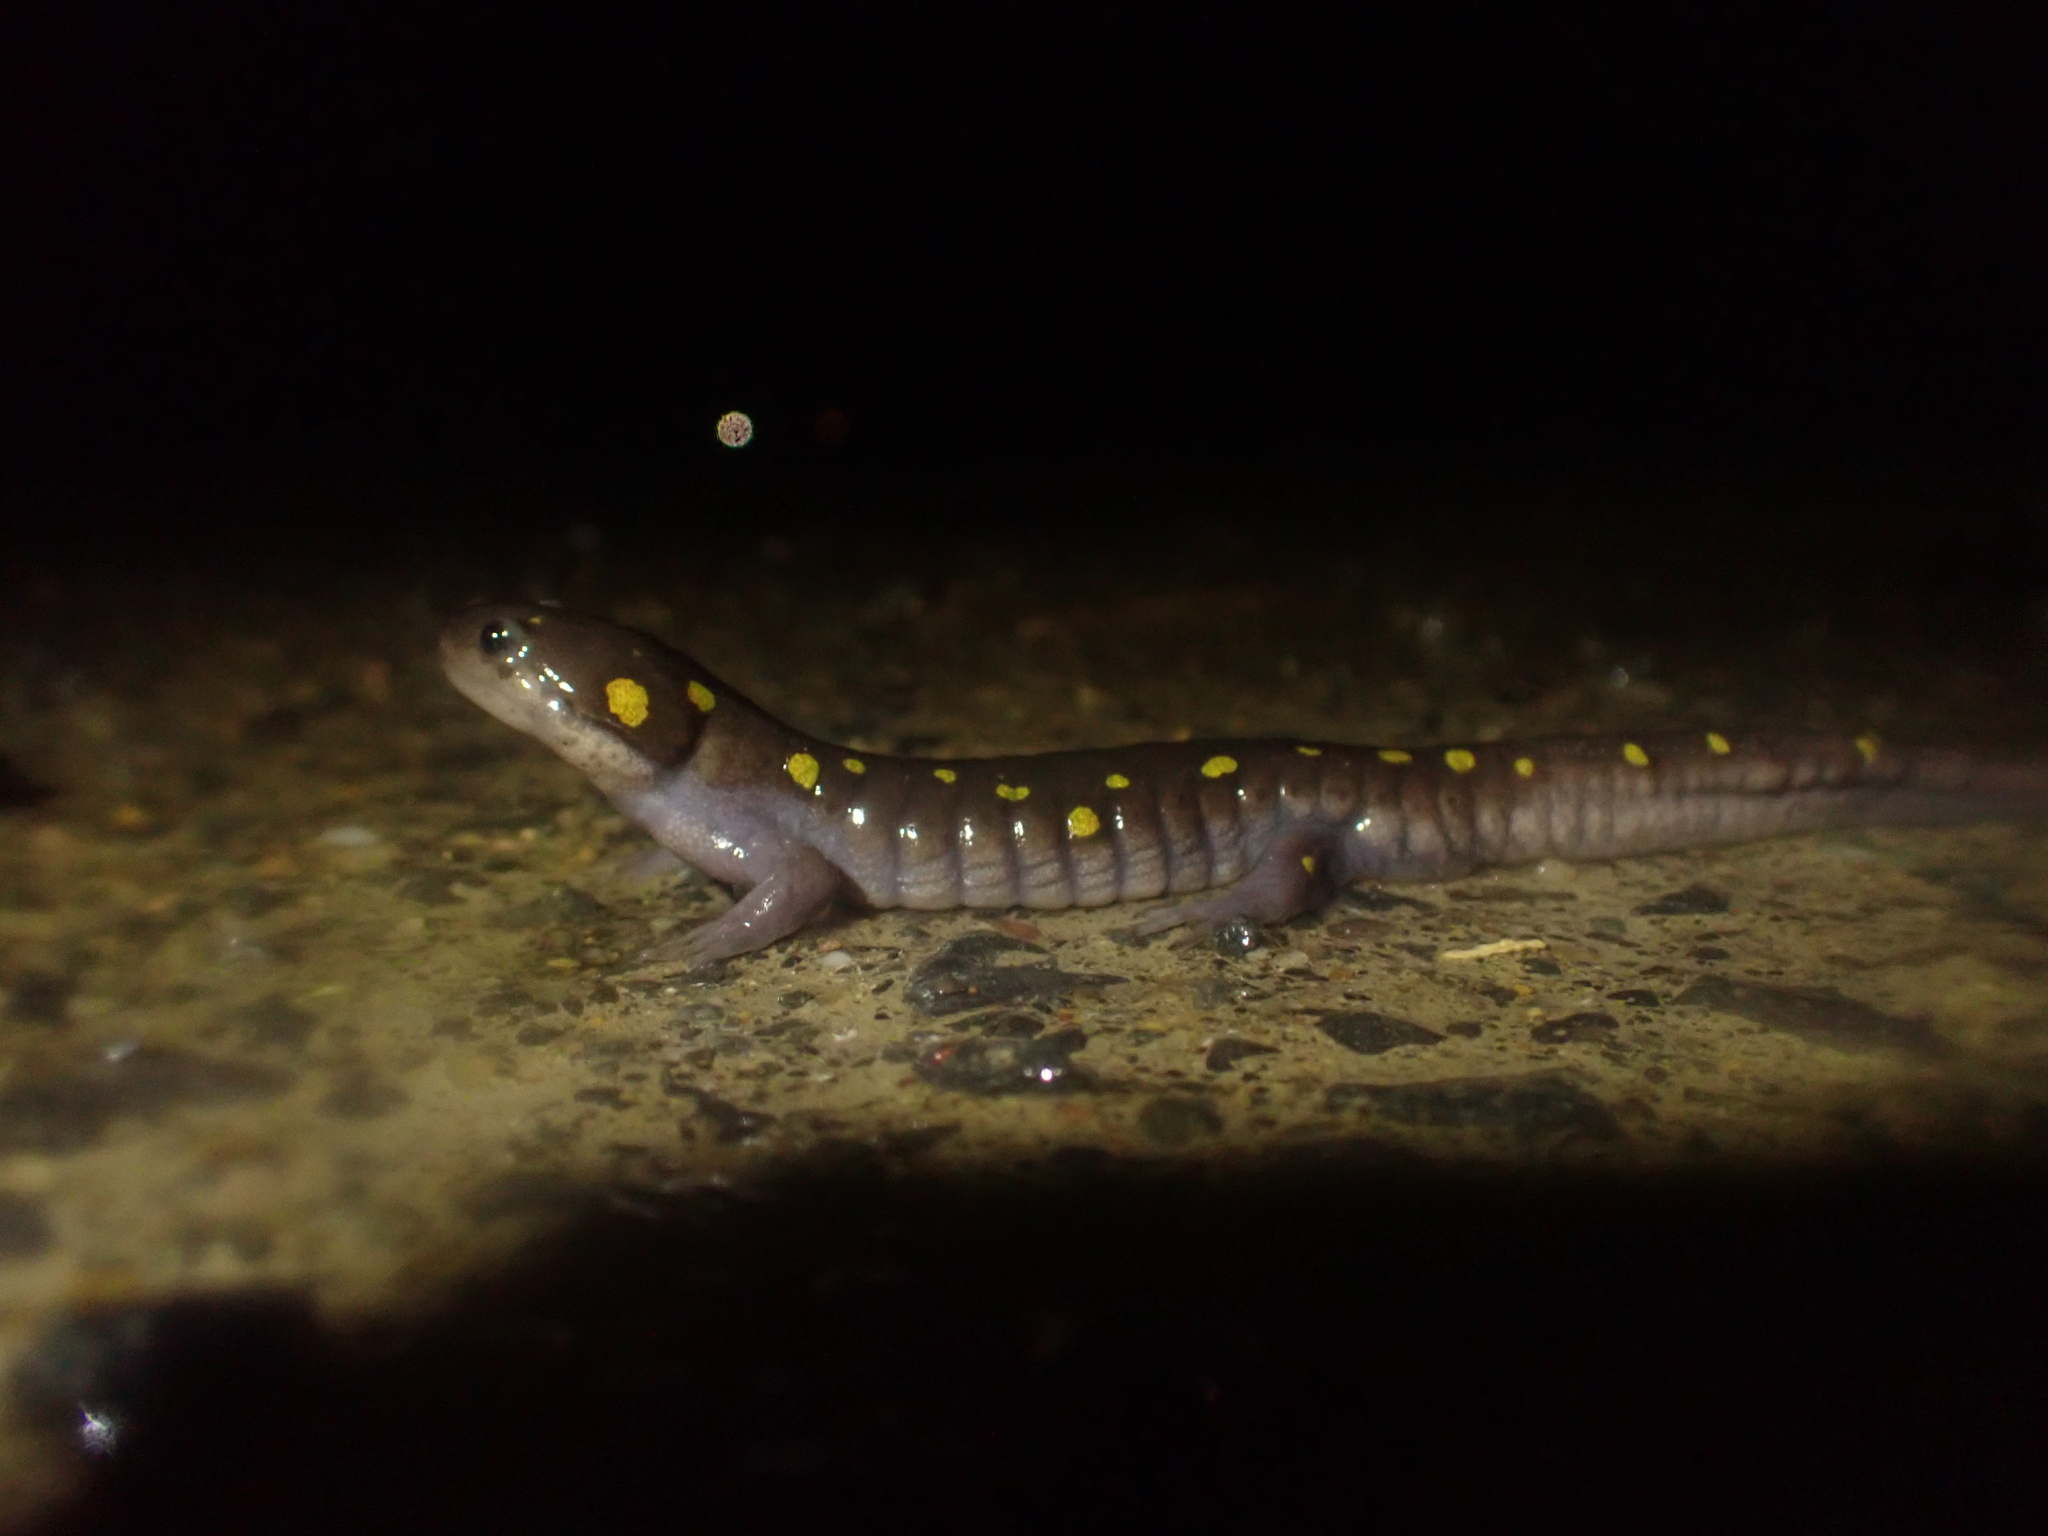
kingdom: Animalia
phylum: Chordata
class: Amphibia
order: Caudata
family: Ambystomatidae
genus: Ambystoma
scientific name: Ambystoma maculatum
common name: Spotted salamander
